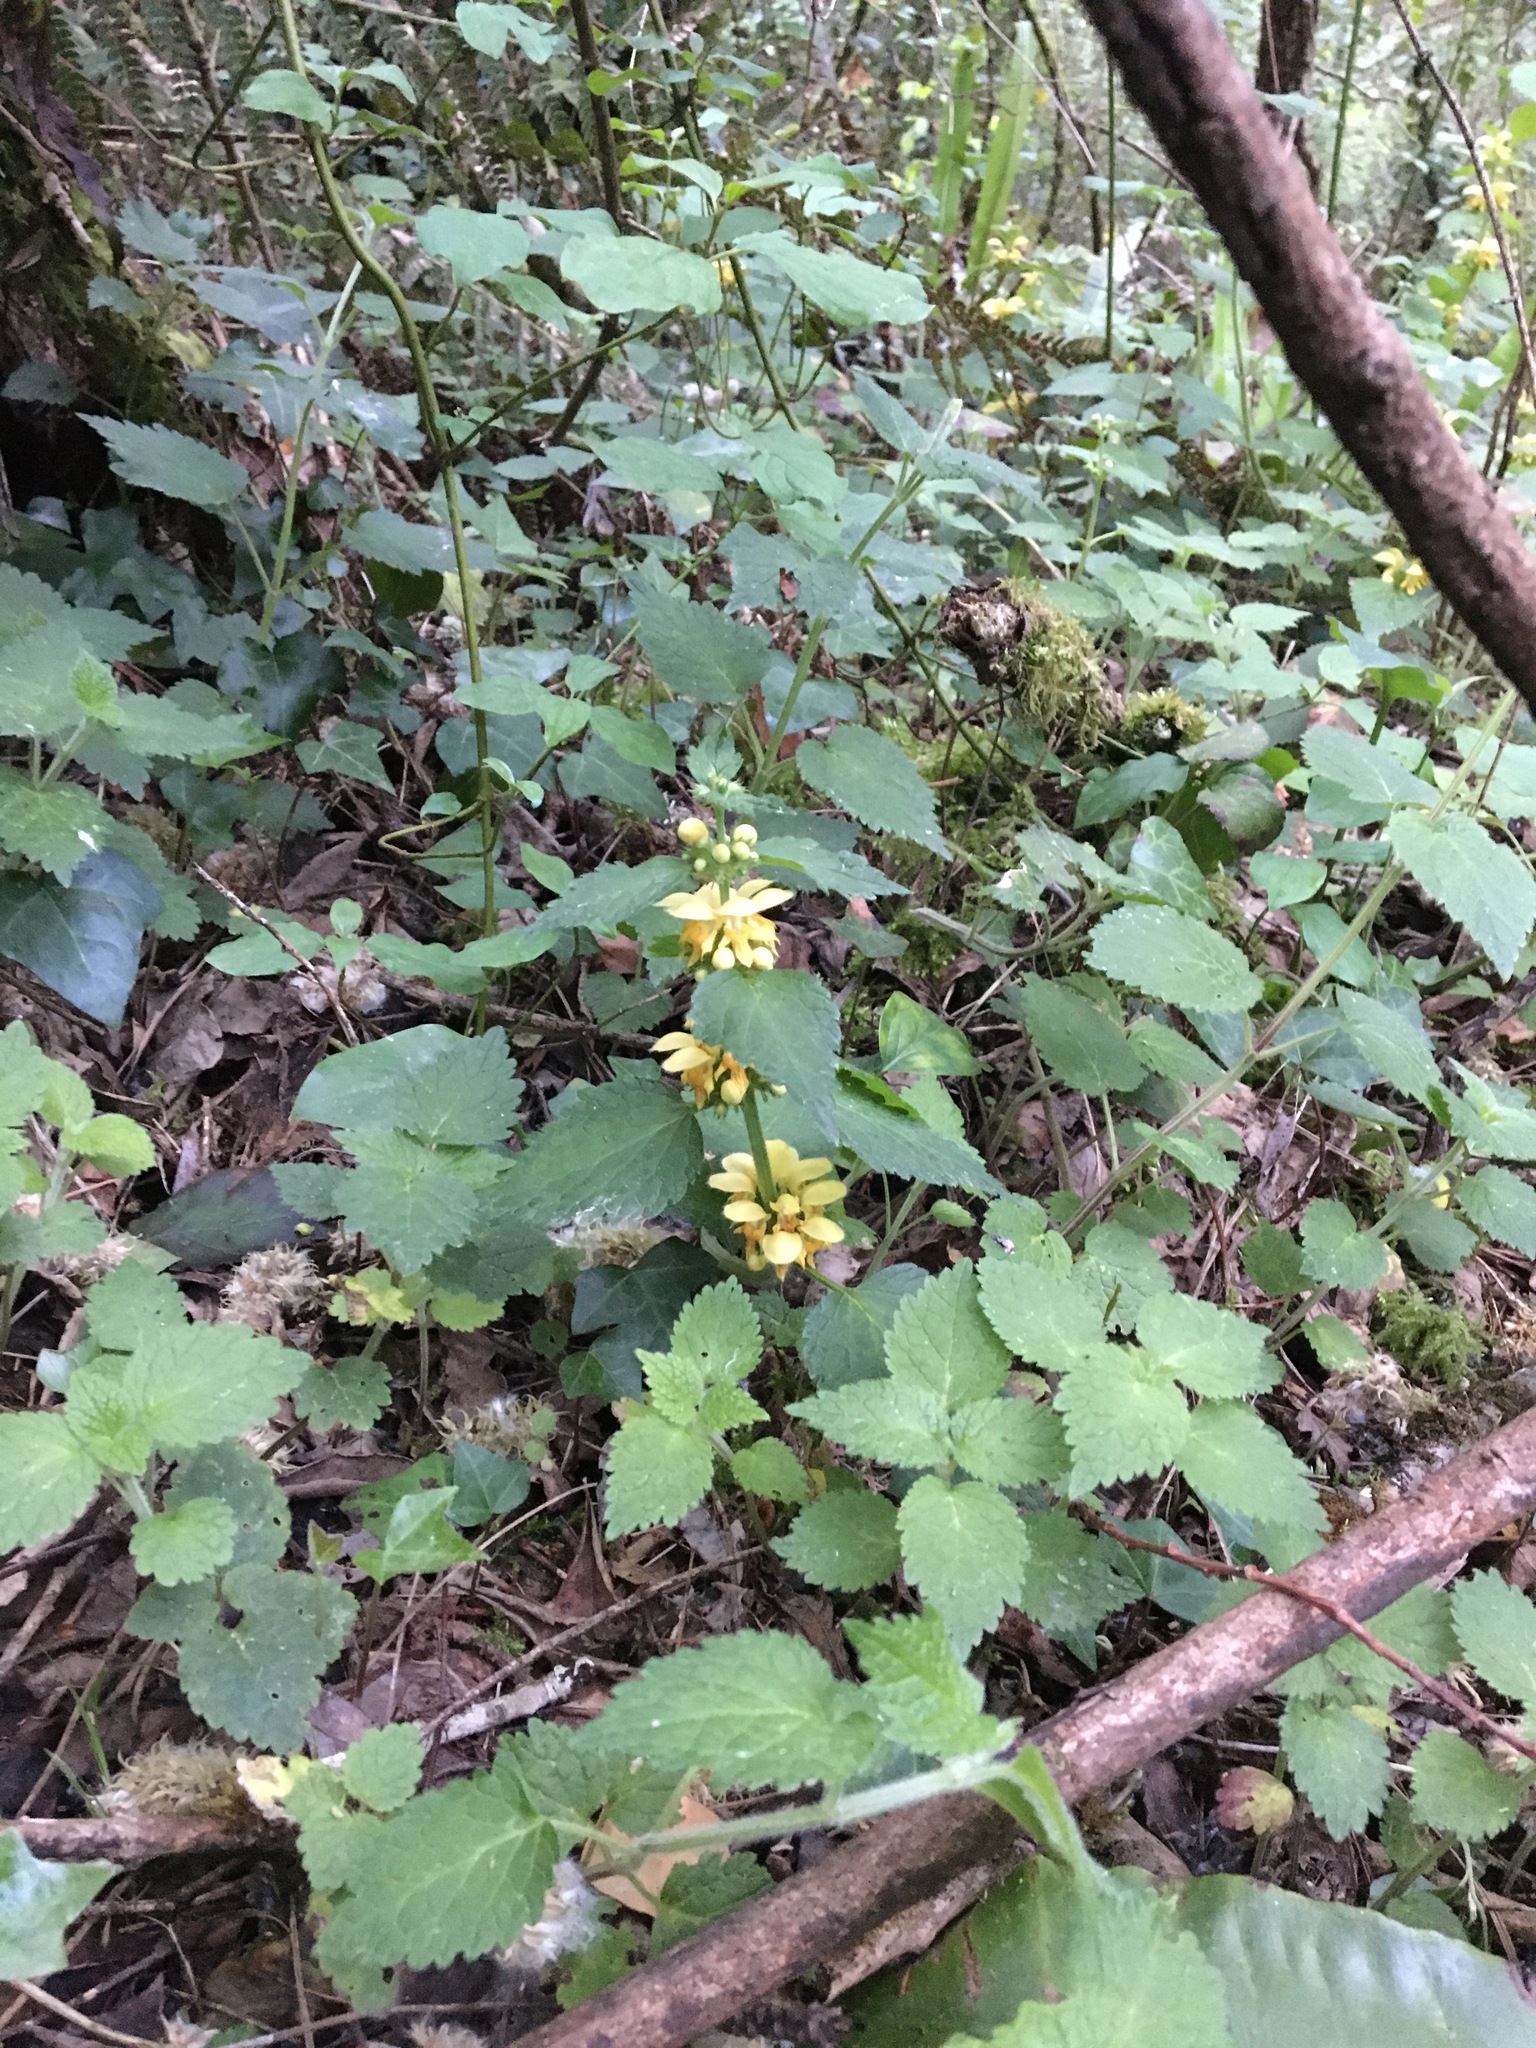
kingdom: Plantae
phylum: Tracheophyta
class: Magnoliopsida
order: Lamiales
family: Lamiaceae
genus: Lamium
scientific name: Lamium galeobdolon
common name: Yellow archangel
